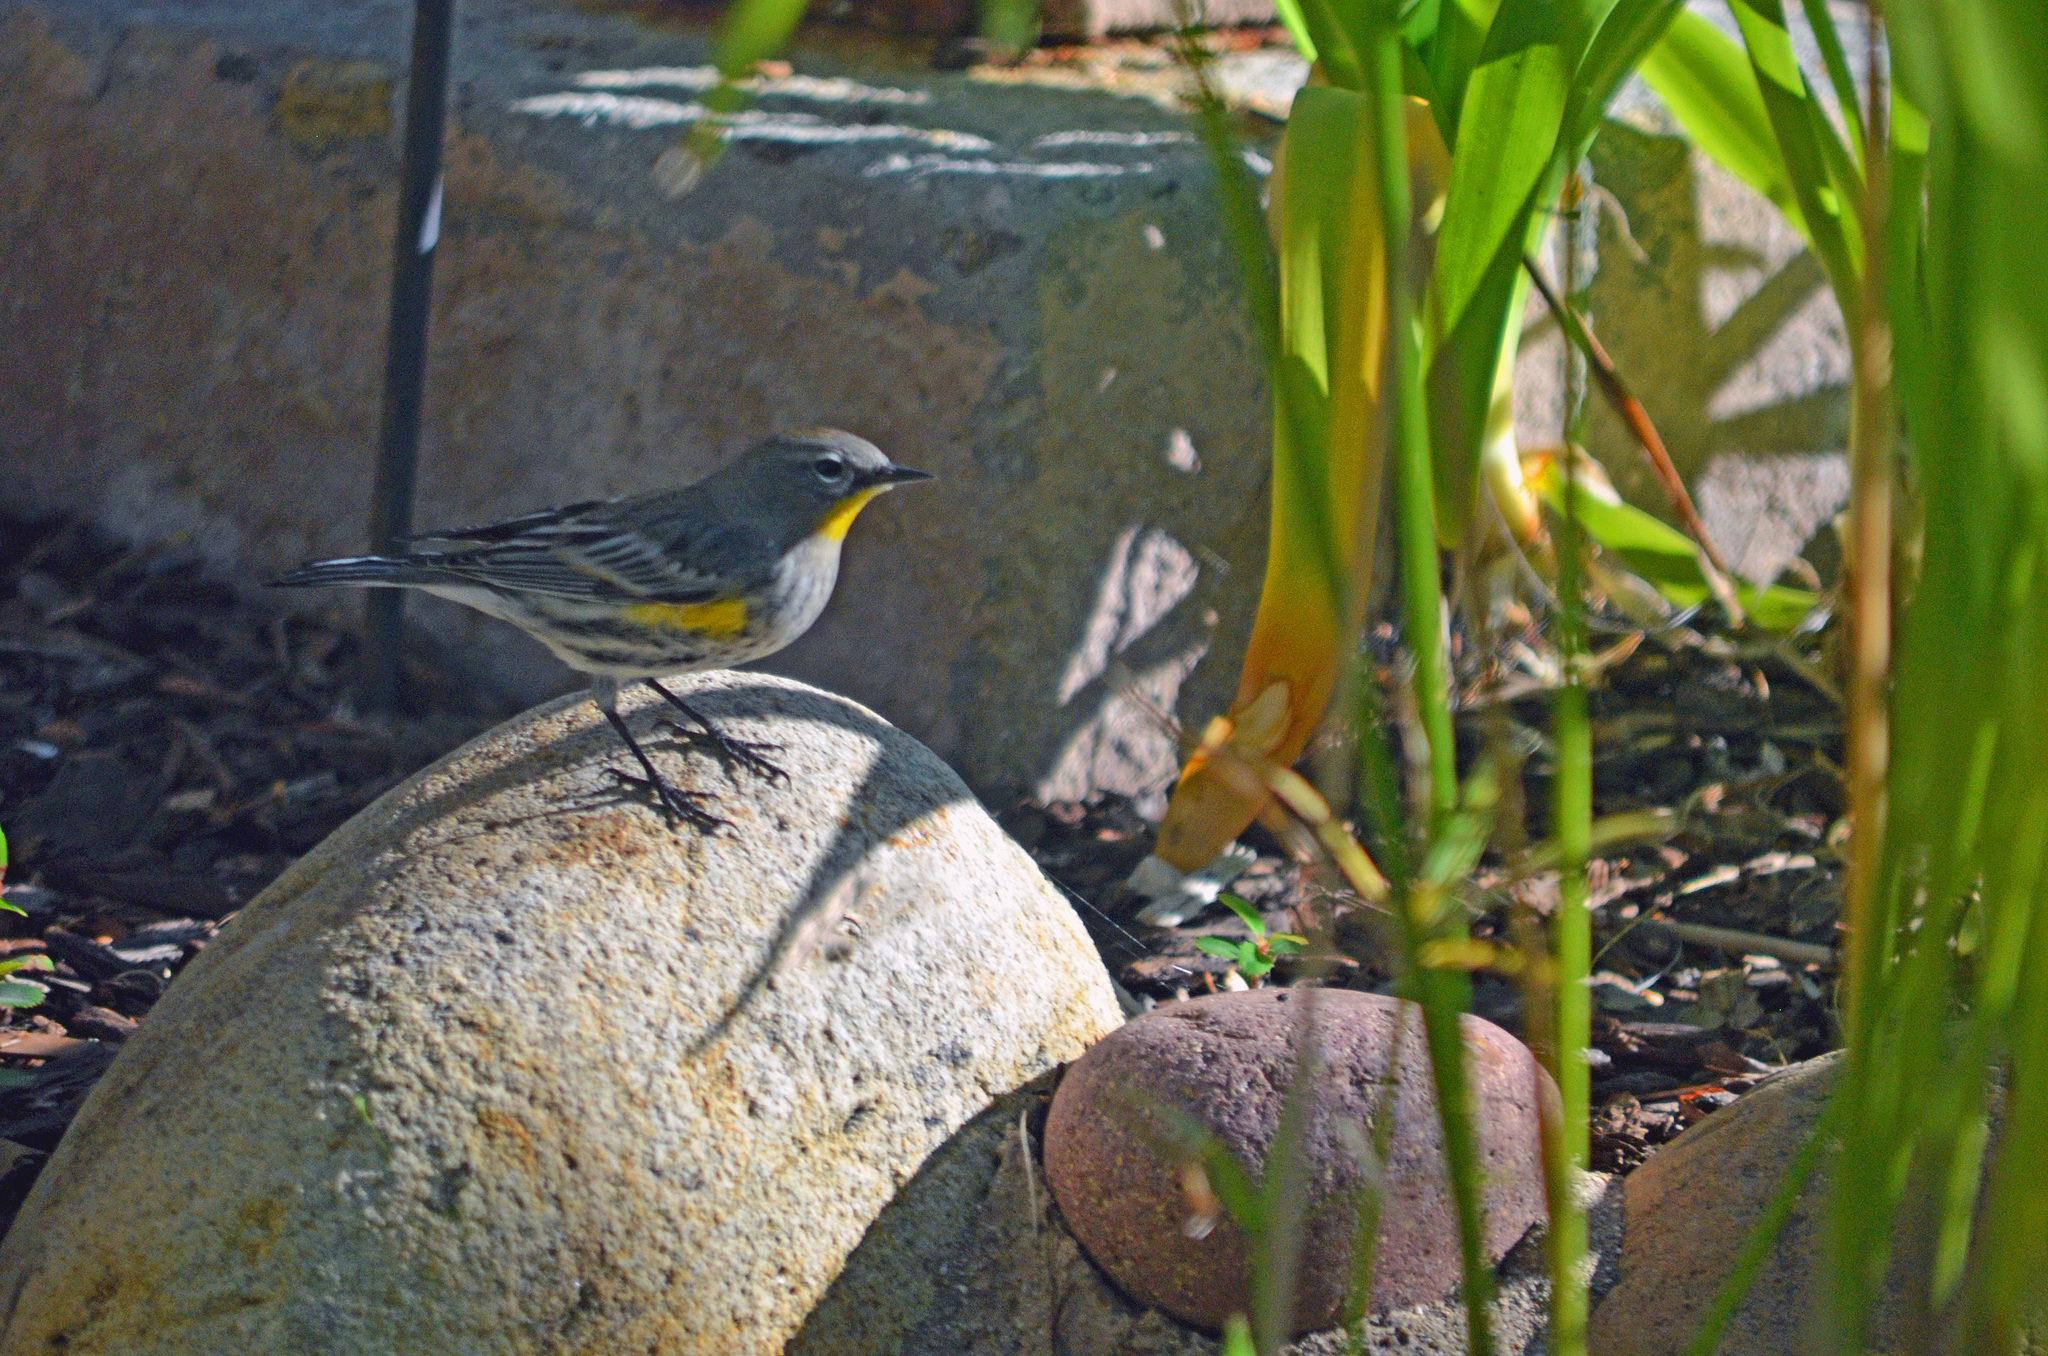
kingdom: Animalia
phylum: Chordata
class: Aves
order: Passeriformes
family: Parulidae
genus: Setophaga
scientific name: Setophaga coronata
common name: Myrtle warbler
